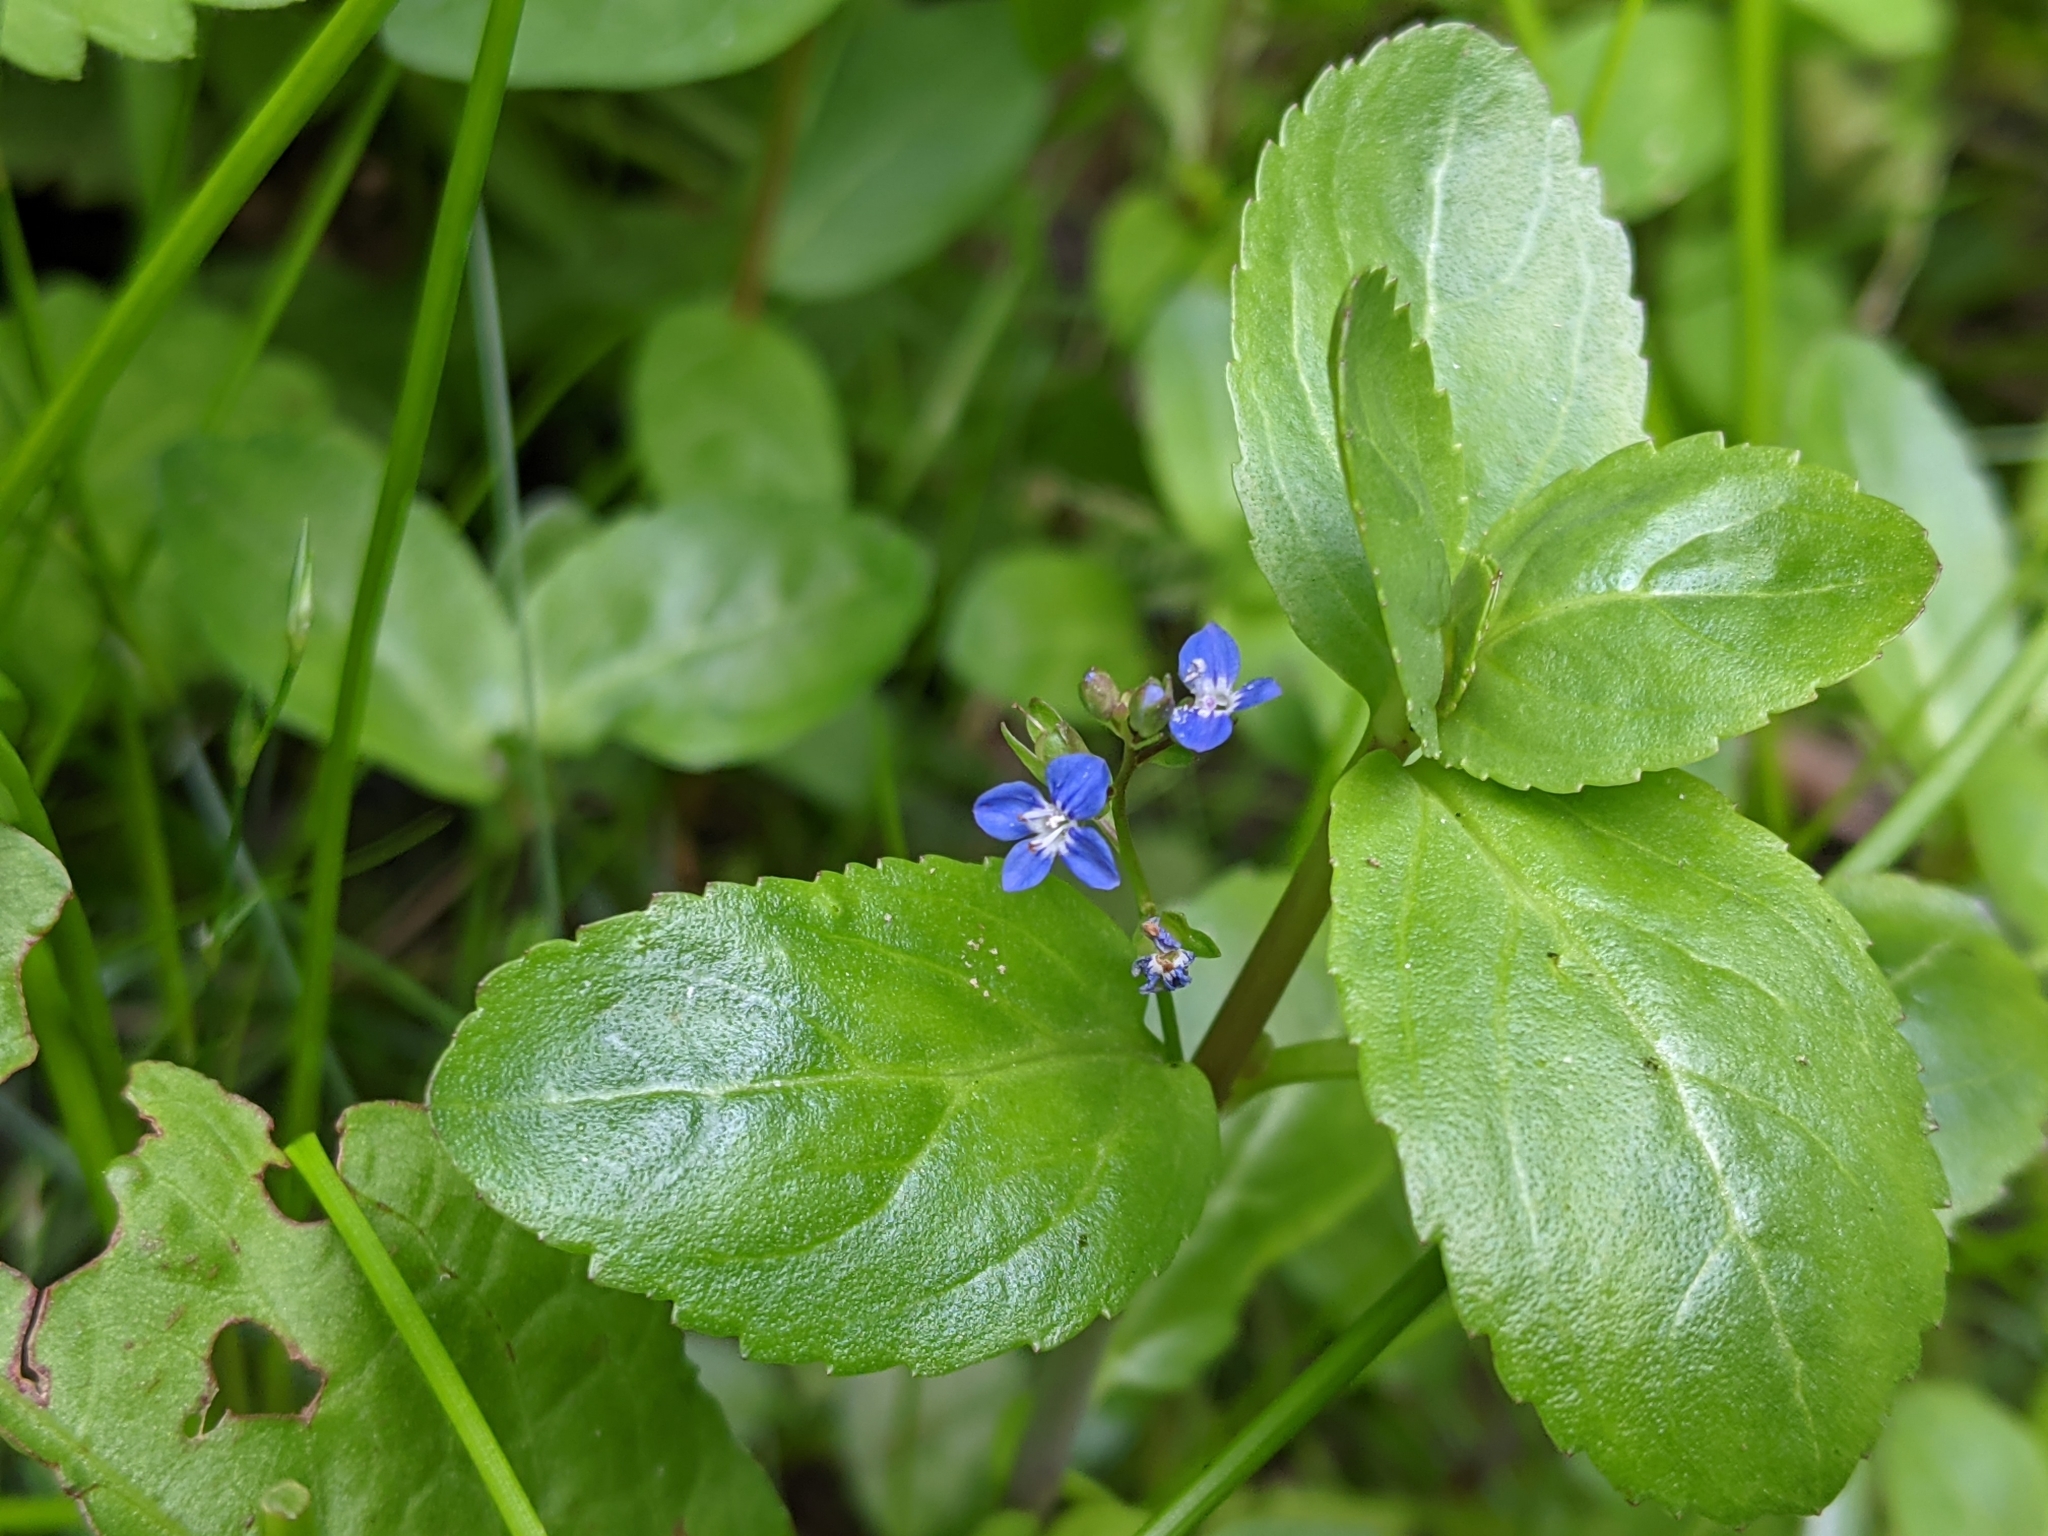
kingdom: Plantae
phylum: Tracheophyta
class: Magnoliopsida
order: Lamiales
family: Plantaginaceae
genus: Veronica
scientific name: Veronica beccabunga
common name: Brooklime
